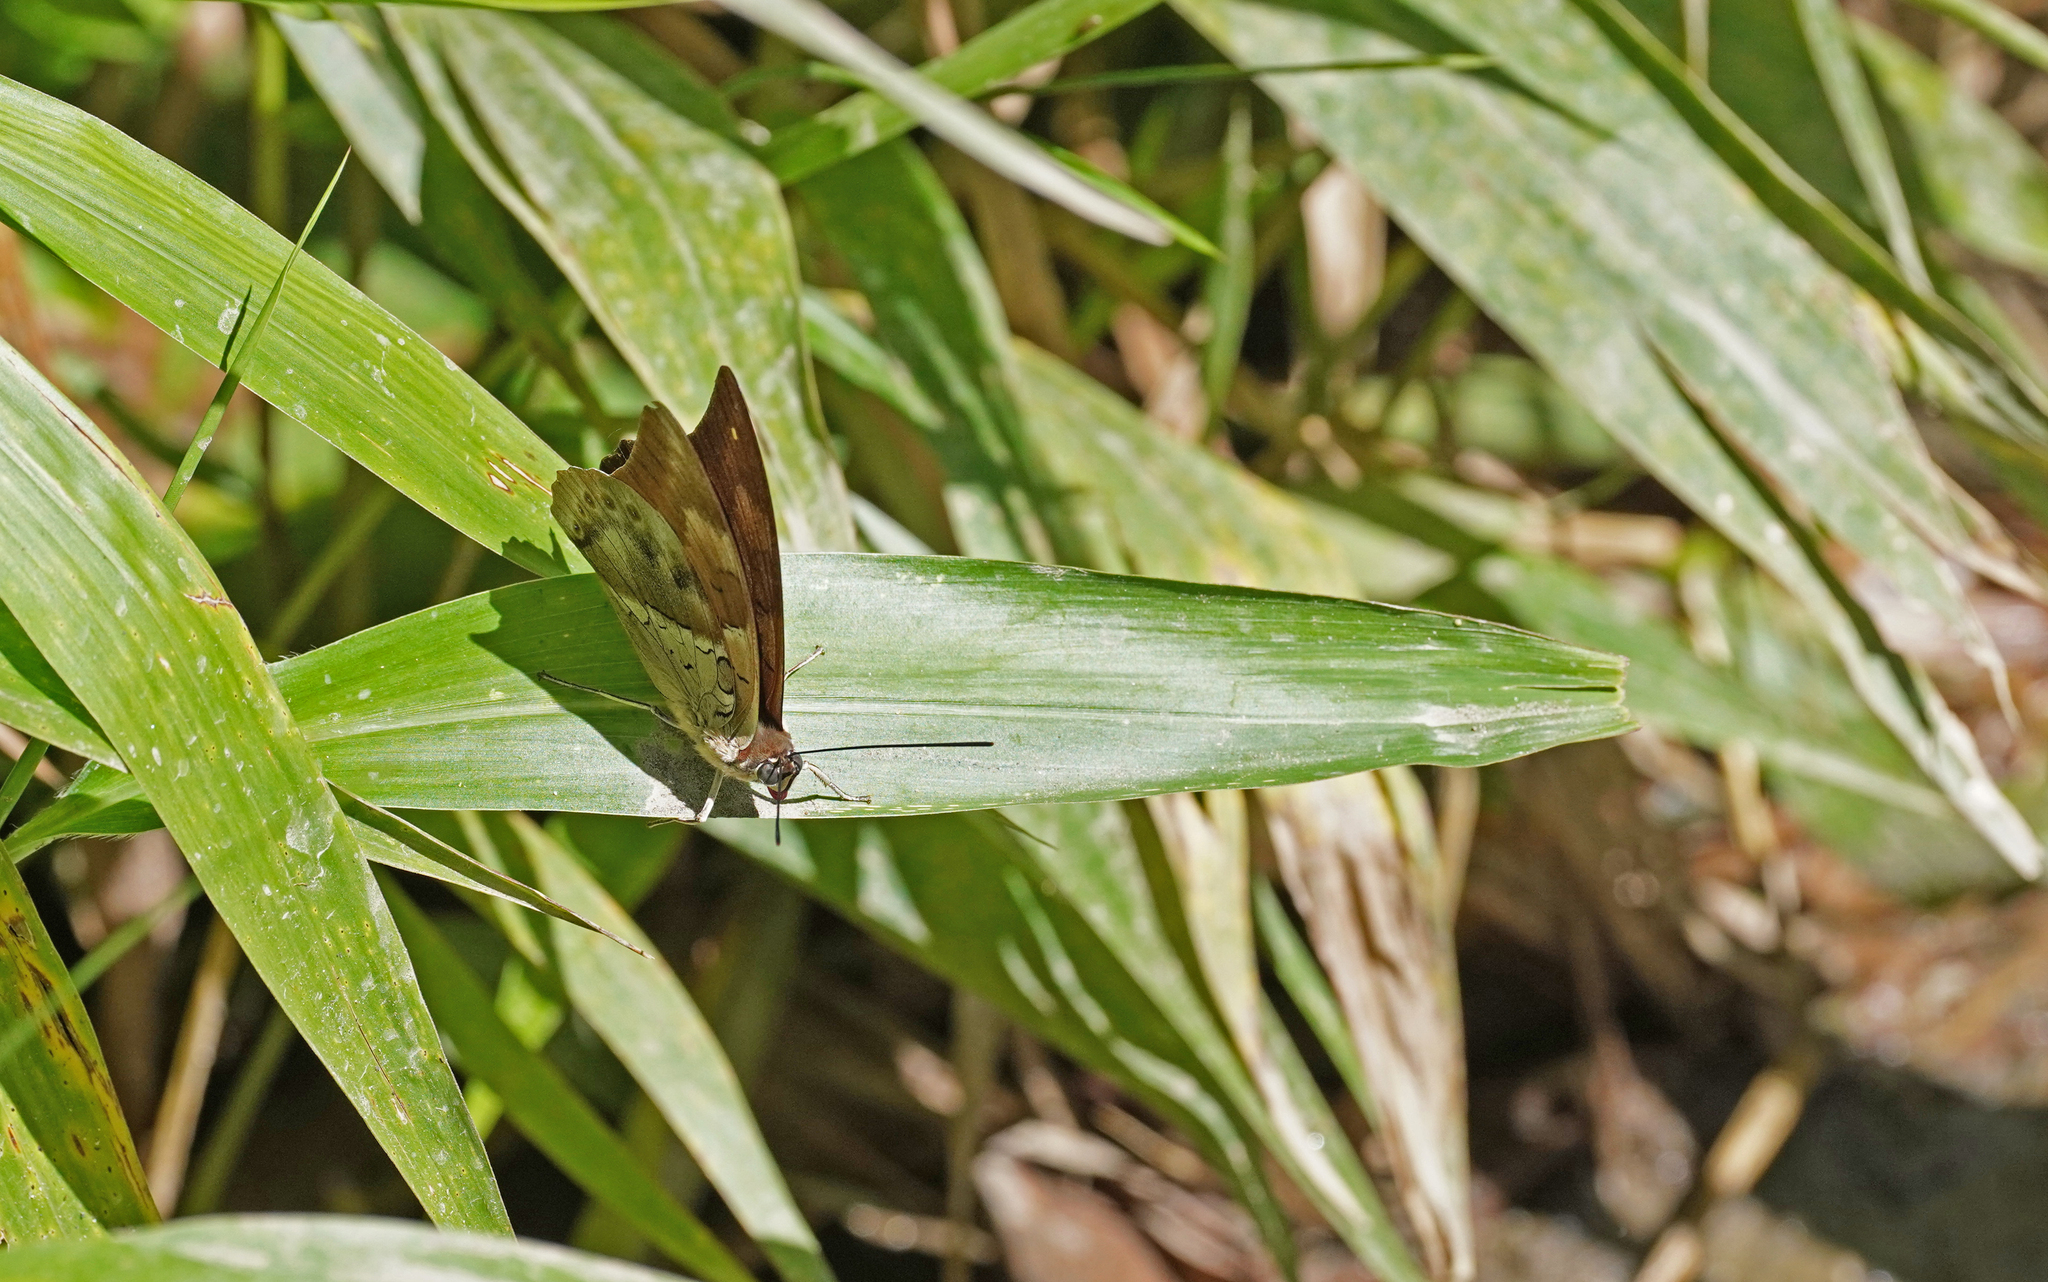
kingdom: Animalia
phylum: Arthropoda
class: Insecta
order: Lepidoptera
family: Nymphalidae
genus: Prepona
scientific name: Prepona
